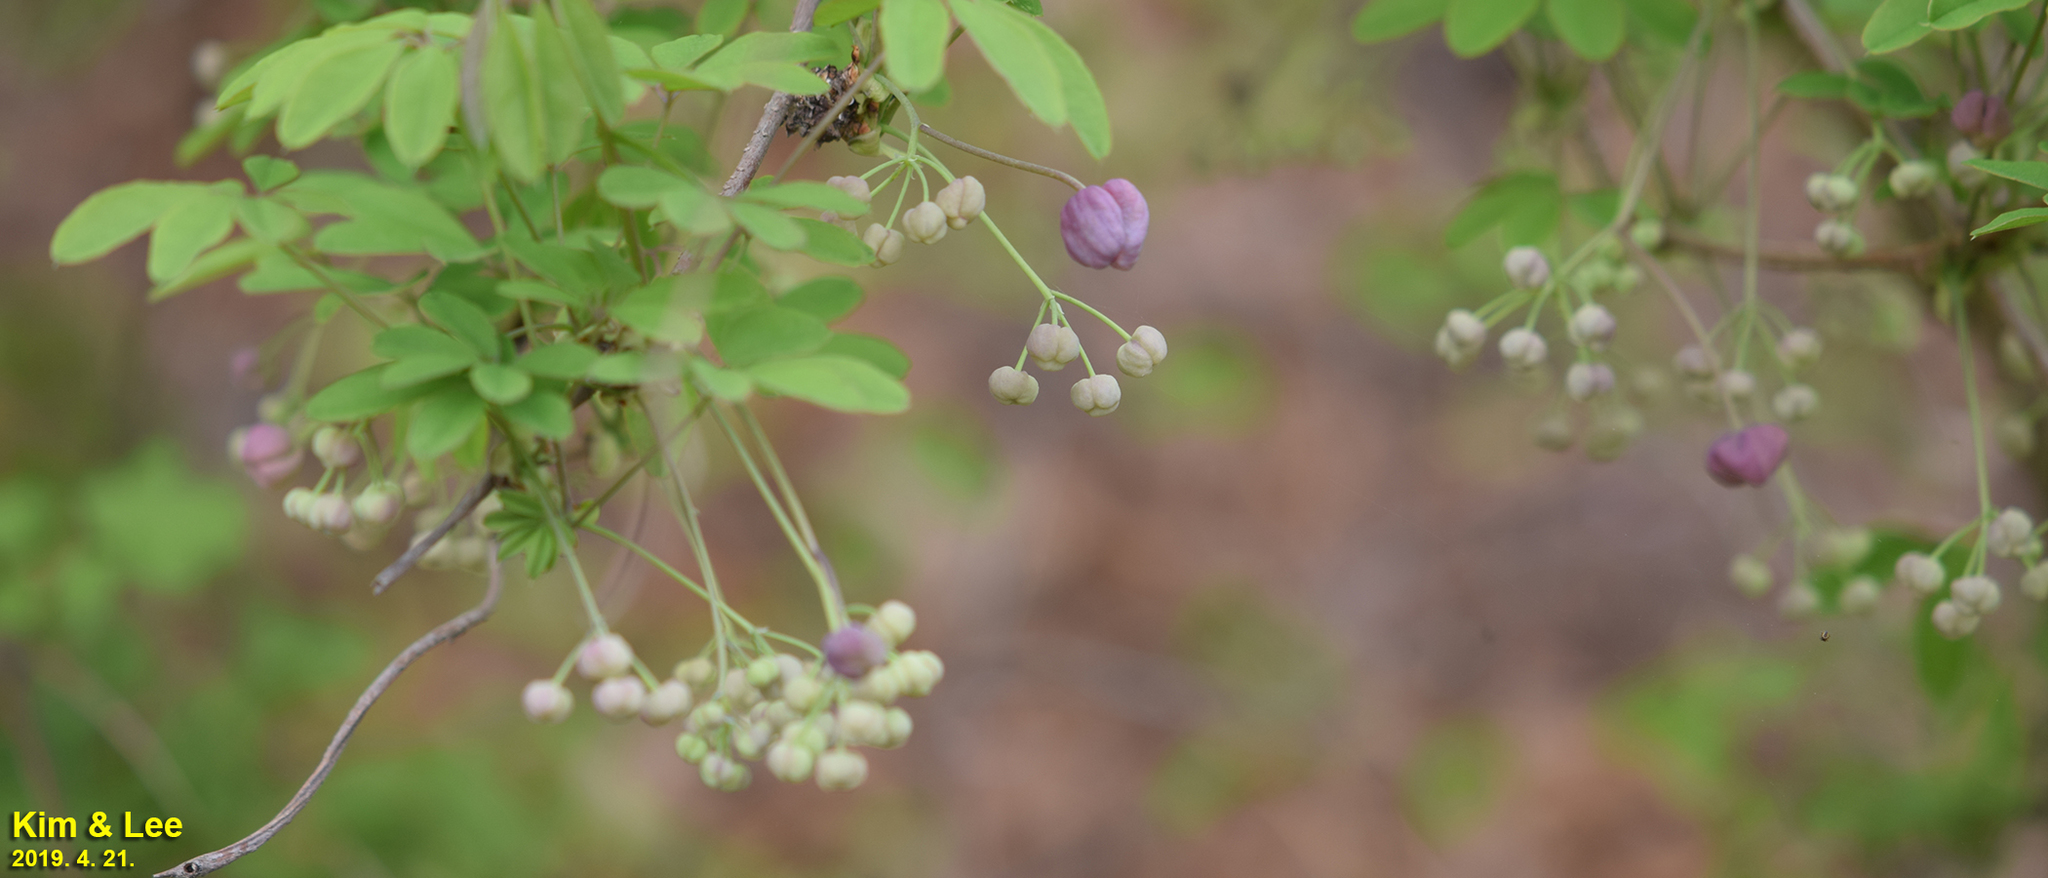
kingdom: Plantae
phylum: Tracheophyta
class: Magnoliopsida
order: Ranunculales
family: Lardizabalaceae
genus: Akebia
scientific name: Akebia quinata
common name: Five-leaf akebia
